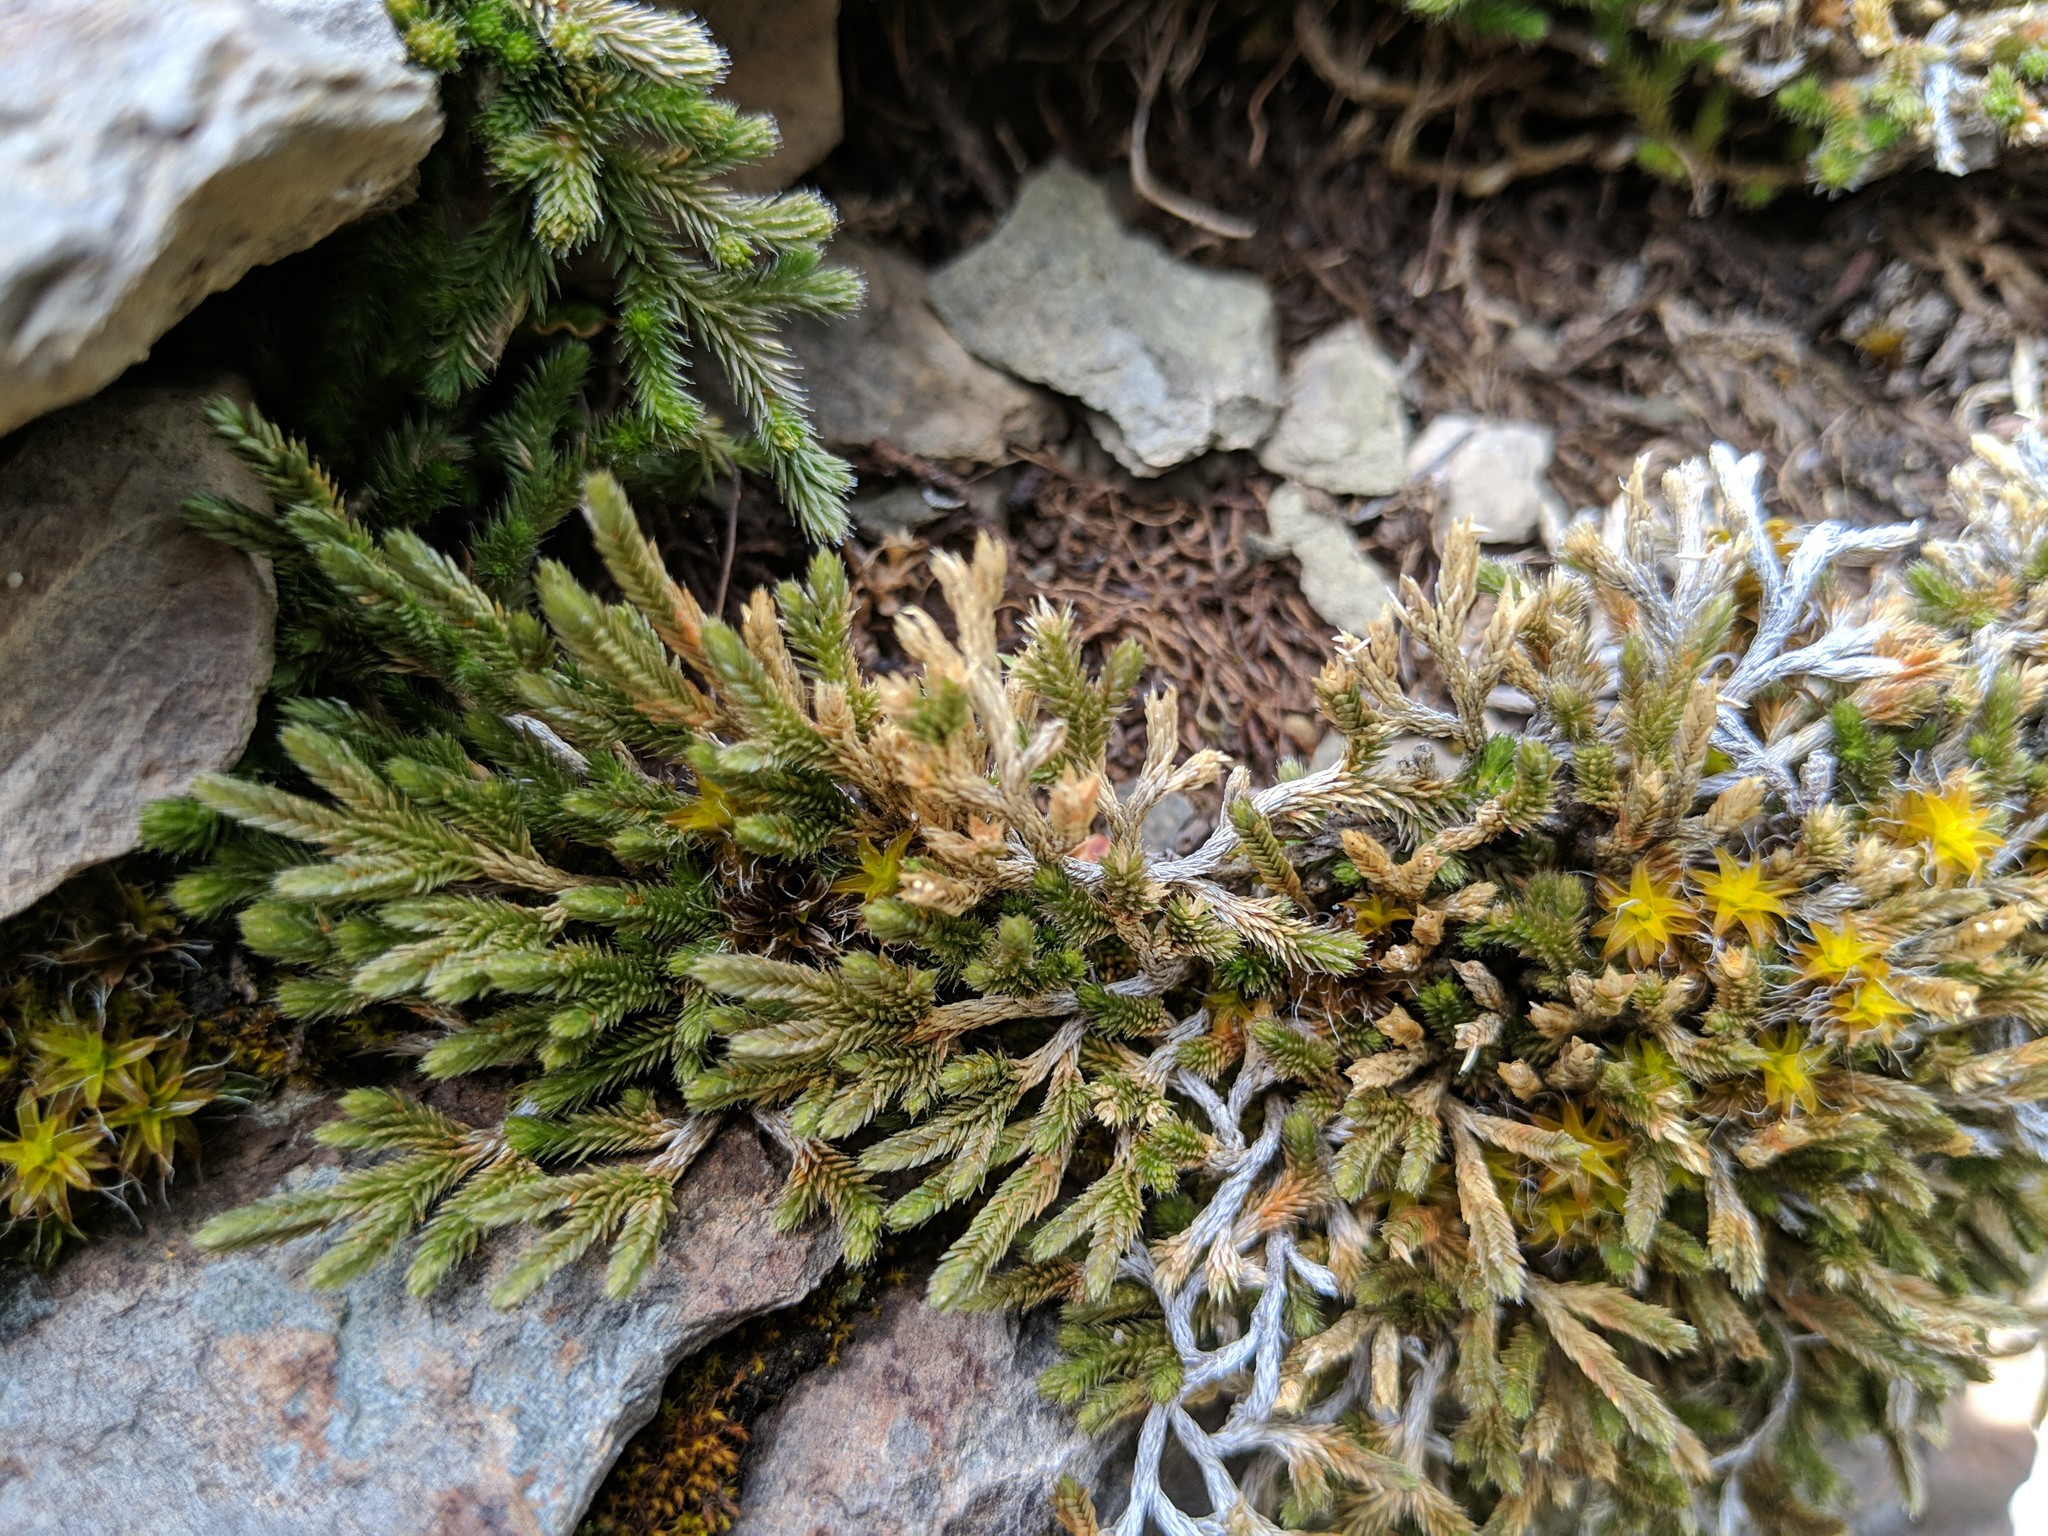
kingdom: Plantae
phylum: Tracheophyta
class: Lycopodiopsida
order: Selaginellales
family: Selaginellaceae
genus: Selaginella
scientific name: Selaginella wallacei
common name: Wallace's selaginella
